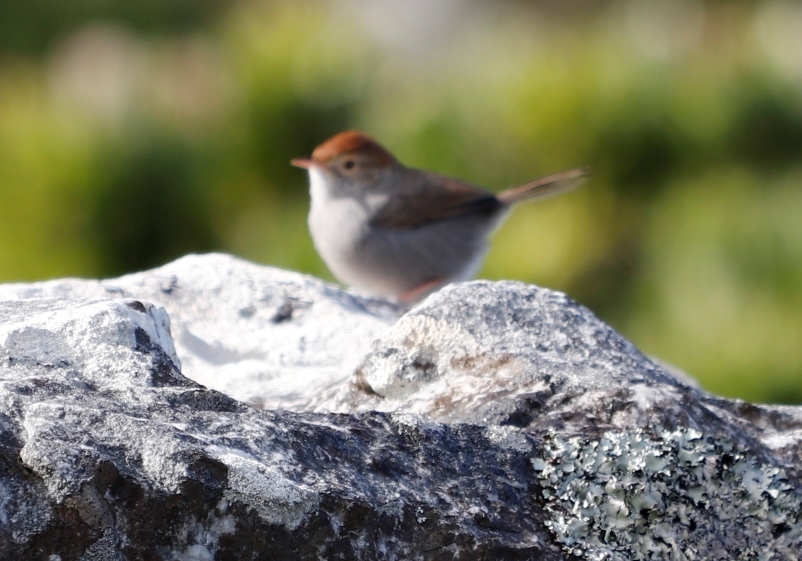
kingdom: Animalia
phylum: Chordata
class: Aves
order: Passeriformes
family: Cisticolidae
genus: Cisticola
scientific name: Cisticola fulvicapilla
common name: Neddicky
